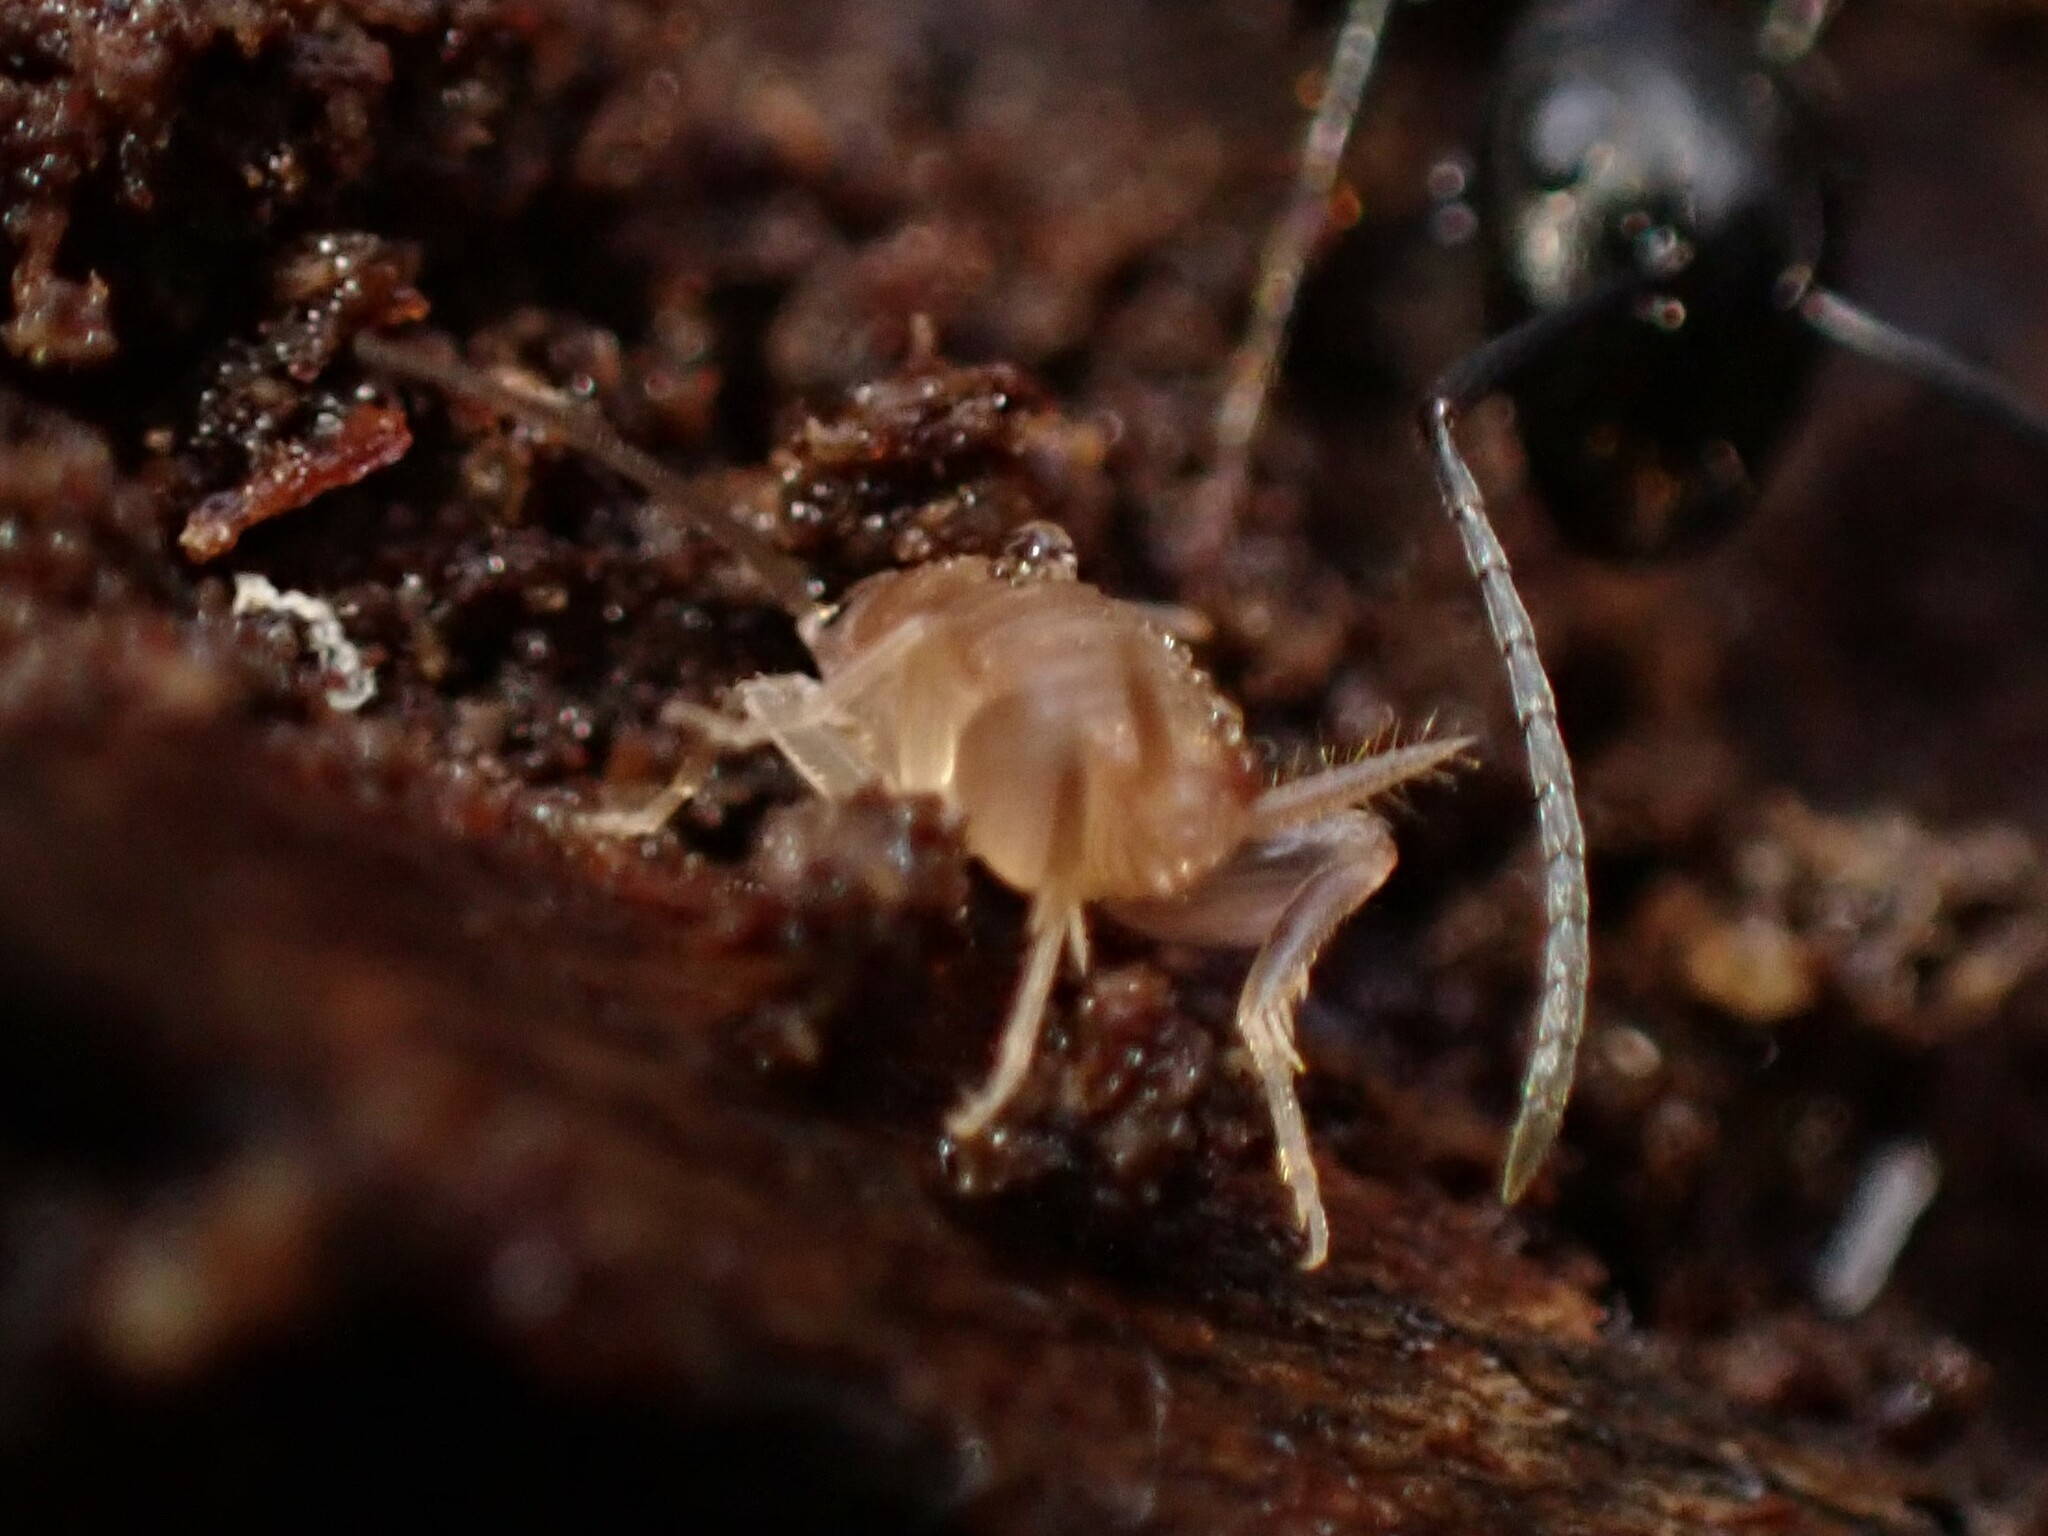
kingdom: Animalia
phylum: Arthropoda
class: Insecta
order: Orthoptera
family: Myrmecophilidae
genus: Myrmecophilus
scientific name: Myrmecophilus pergandei
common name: Eastern ant cricket
